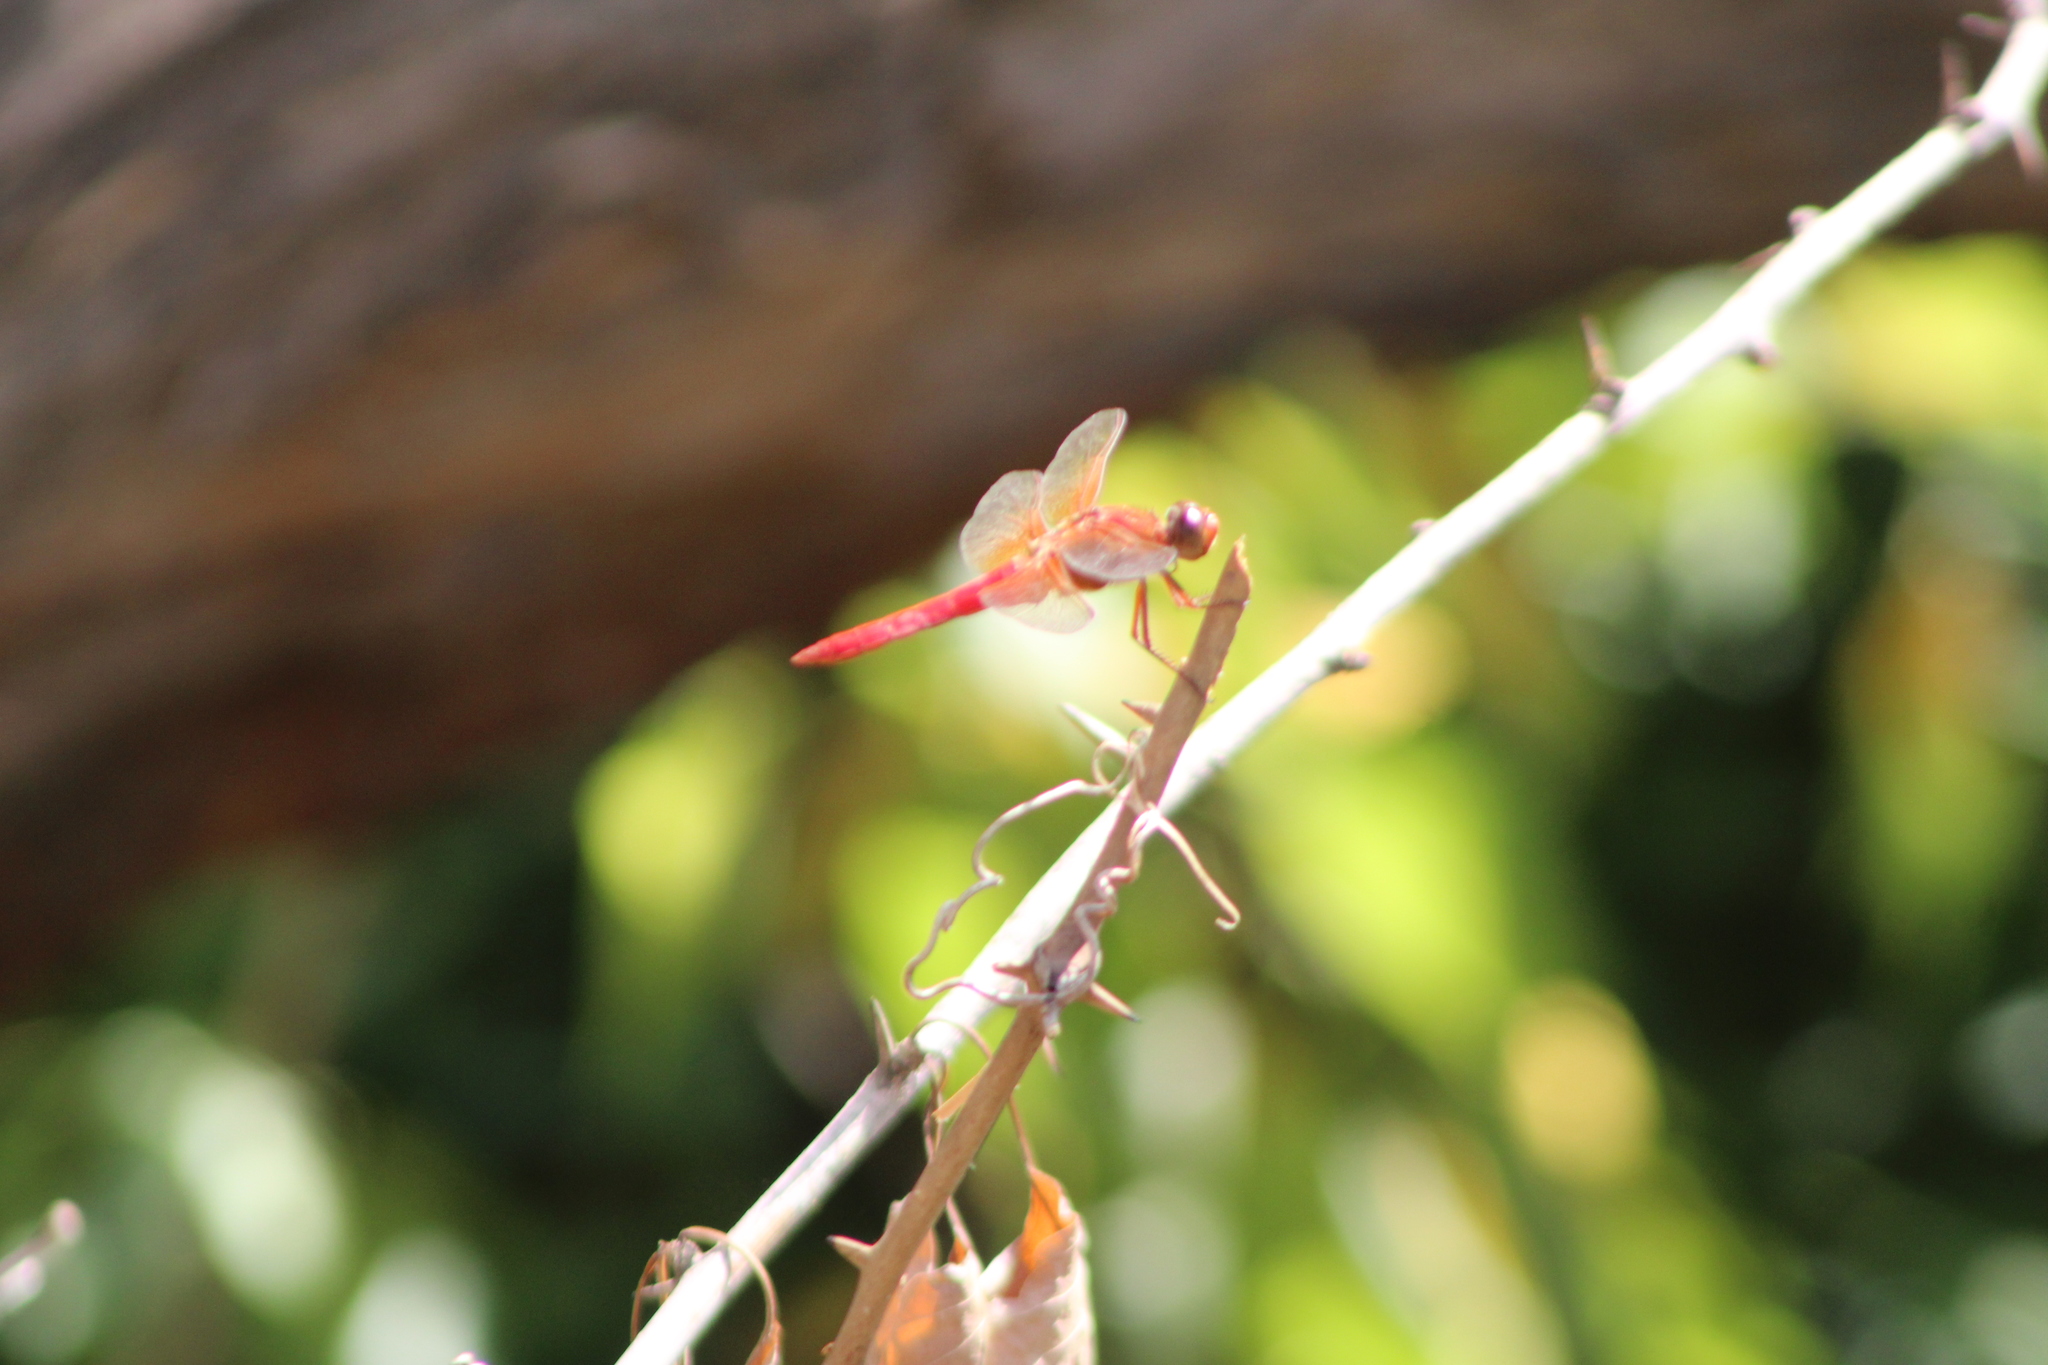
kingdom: Animalia
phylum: Arthropoda
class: Insecta
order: Odonata
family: Libellulidae
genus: Libellula
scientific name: Libellula croceipennis
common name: Neon skimmer
